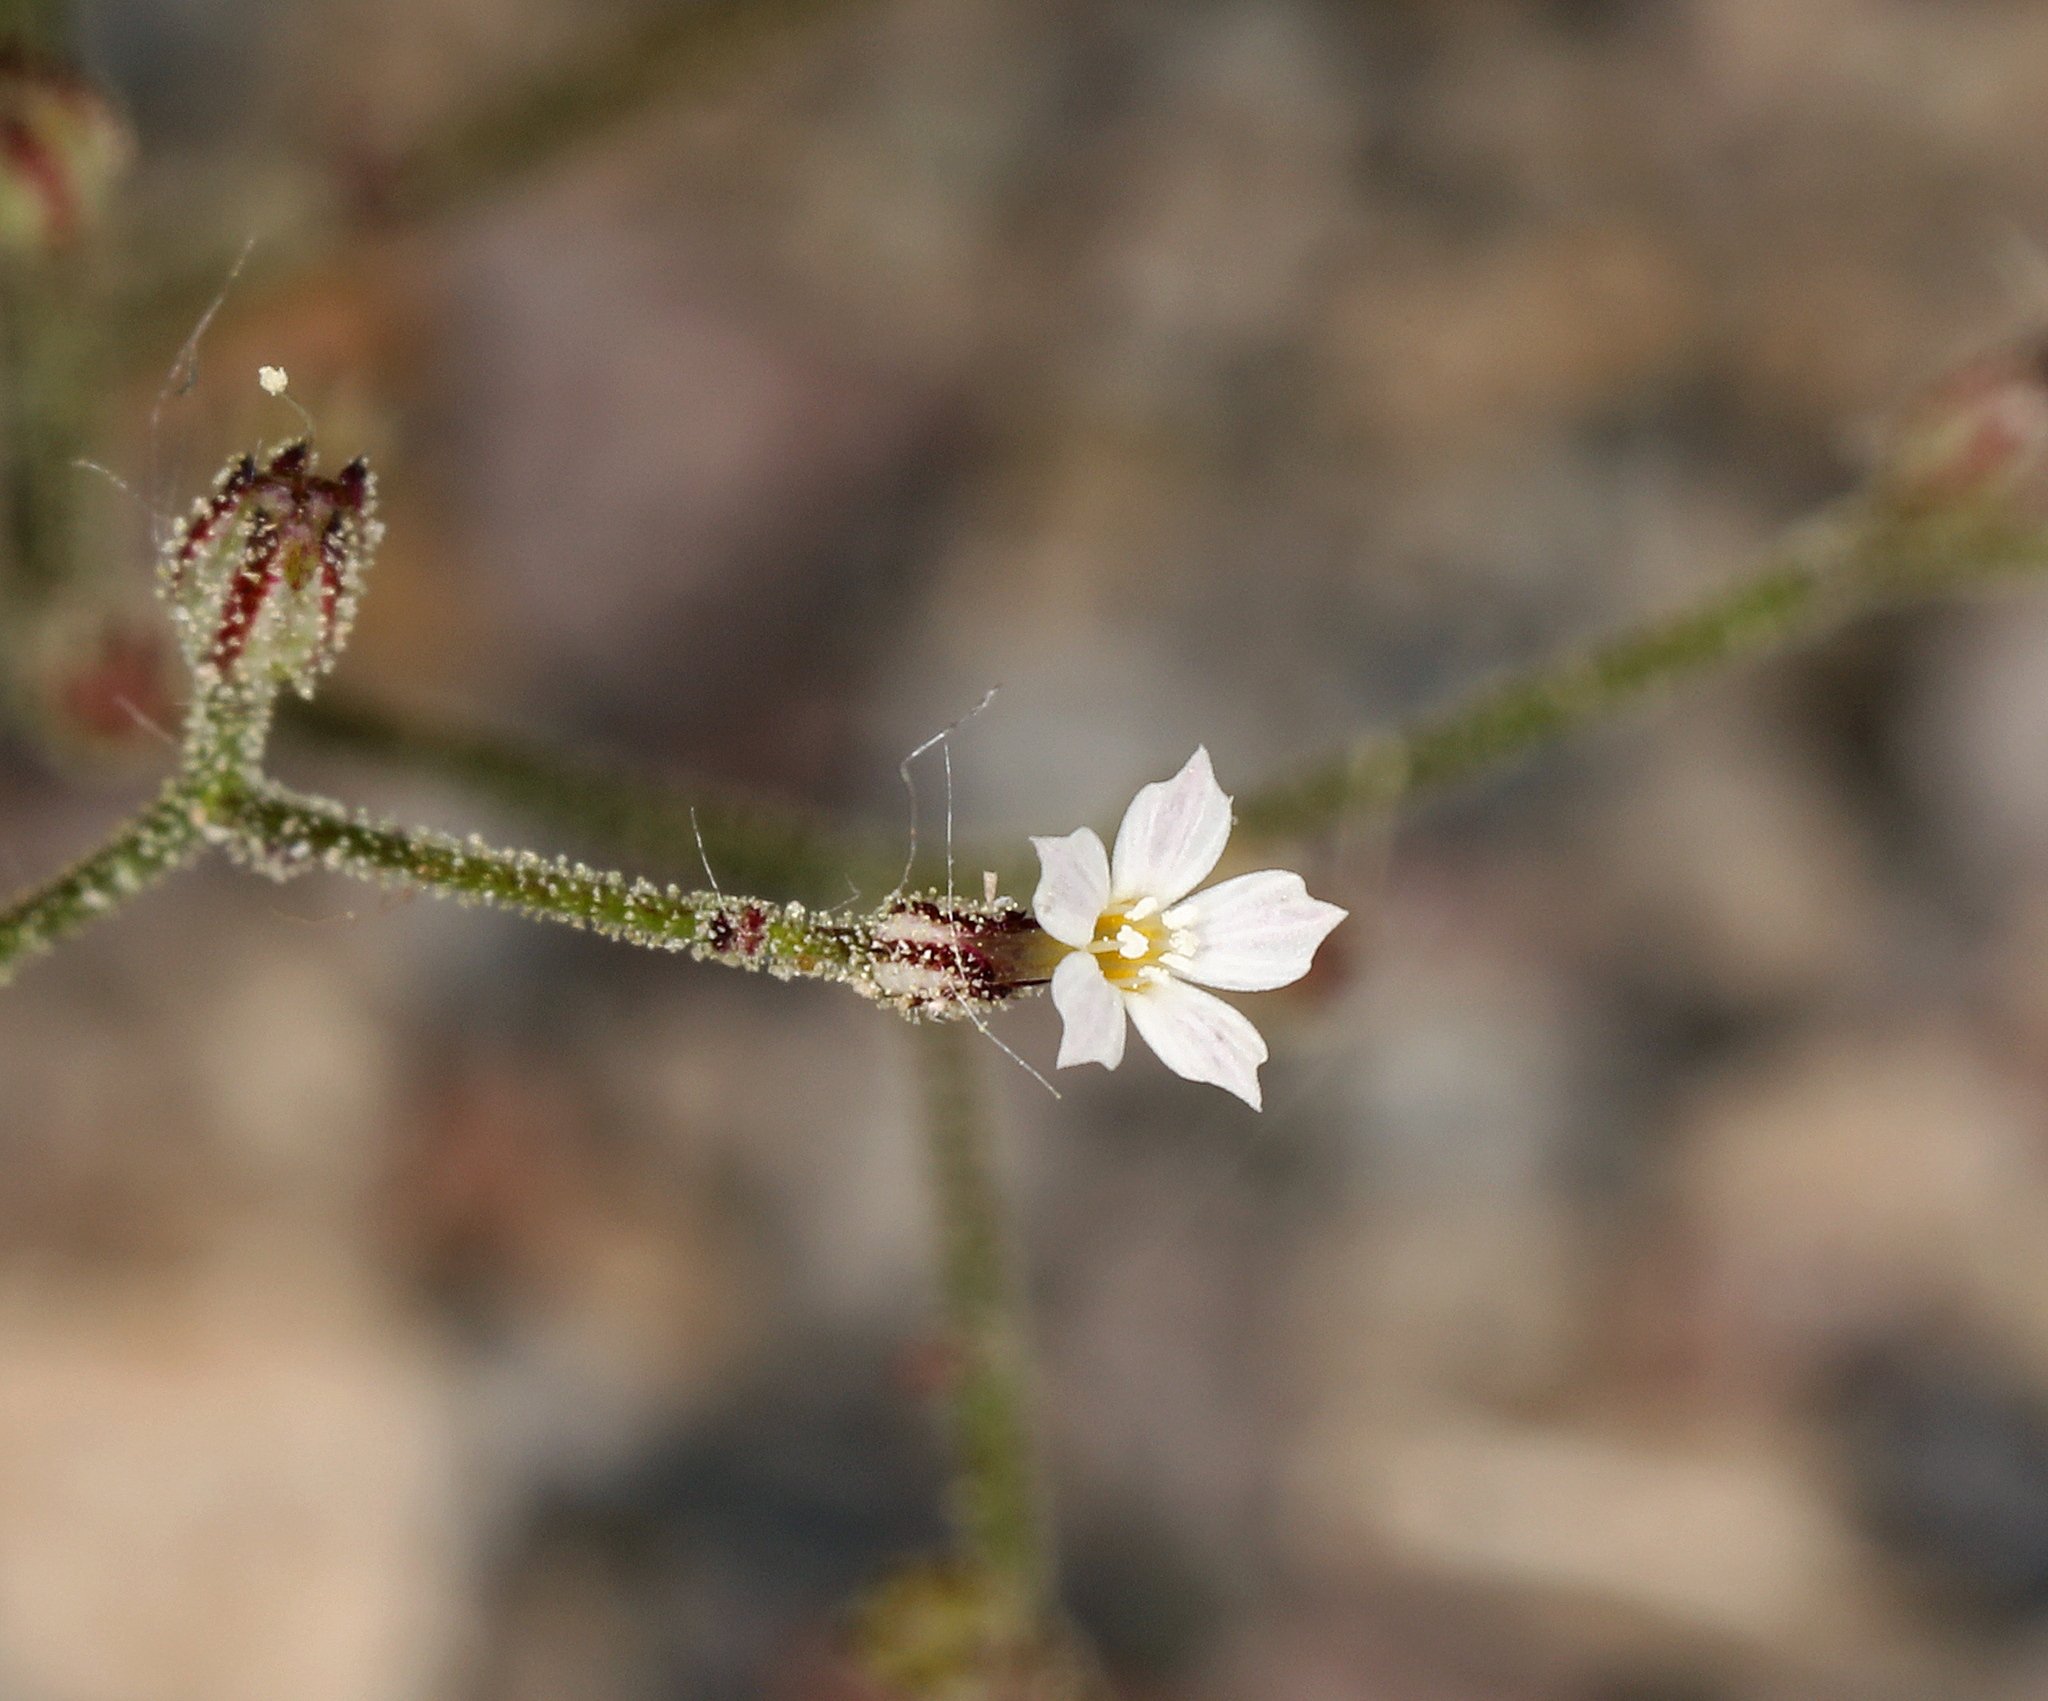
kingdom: Plantae
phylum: Tracheophyta
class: Magnoliopsida
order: Ericales
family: Polemoniaceae
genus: Aliciella
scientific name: Aliciella leptomeria
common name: Sand gilia
